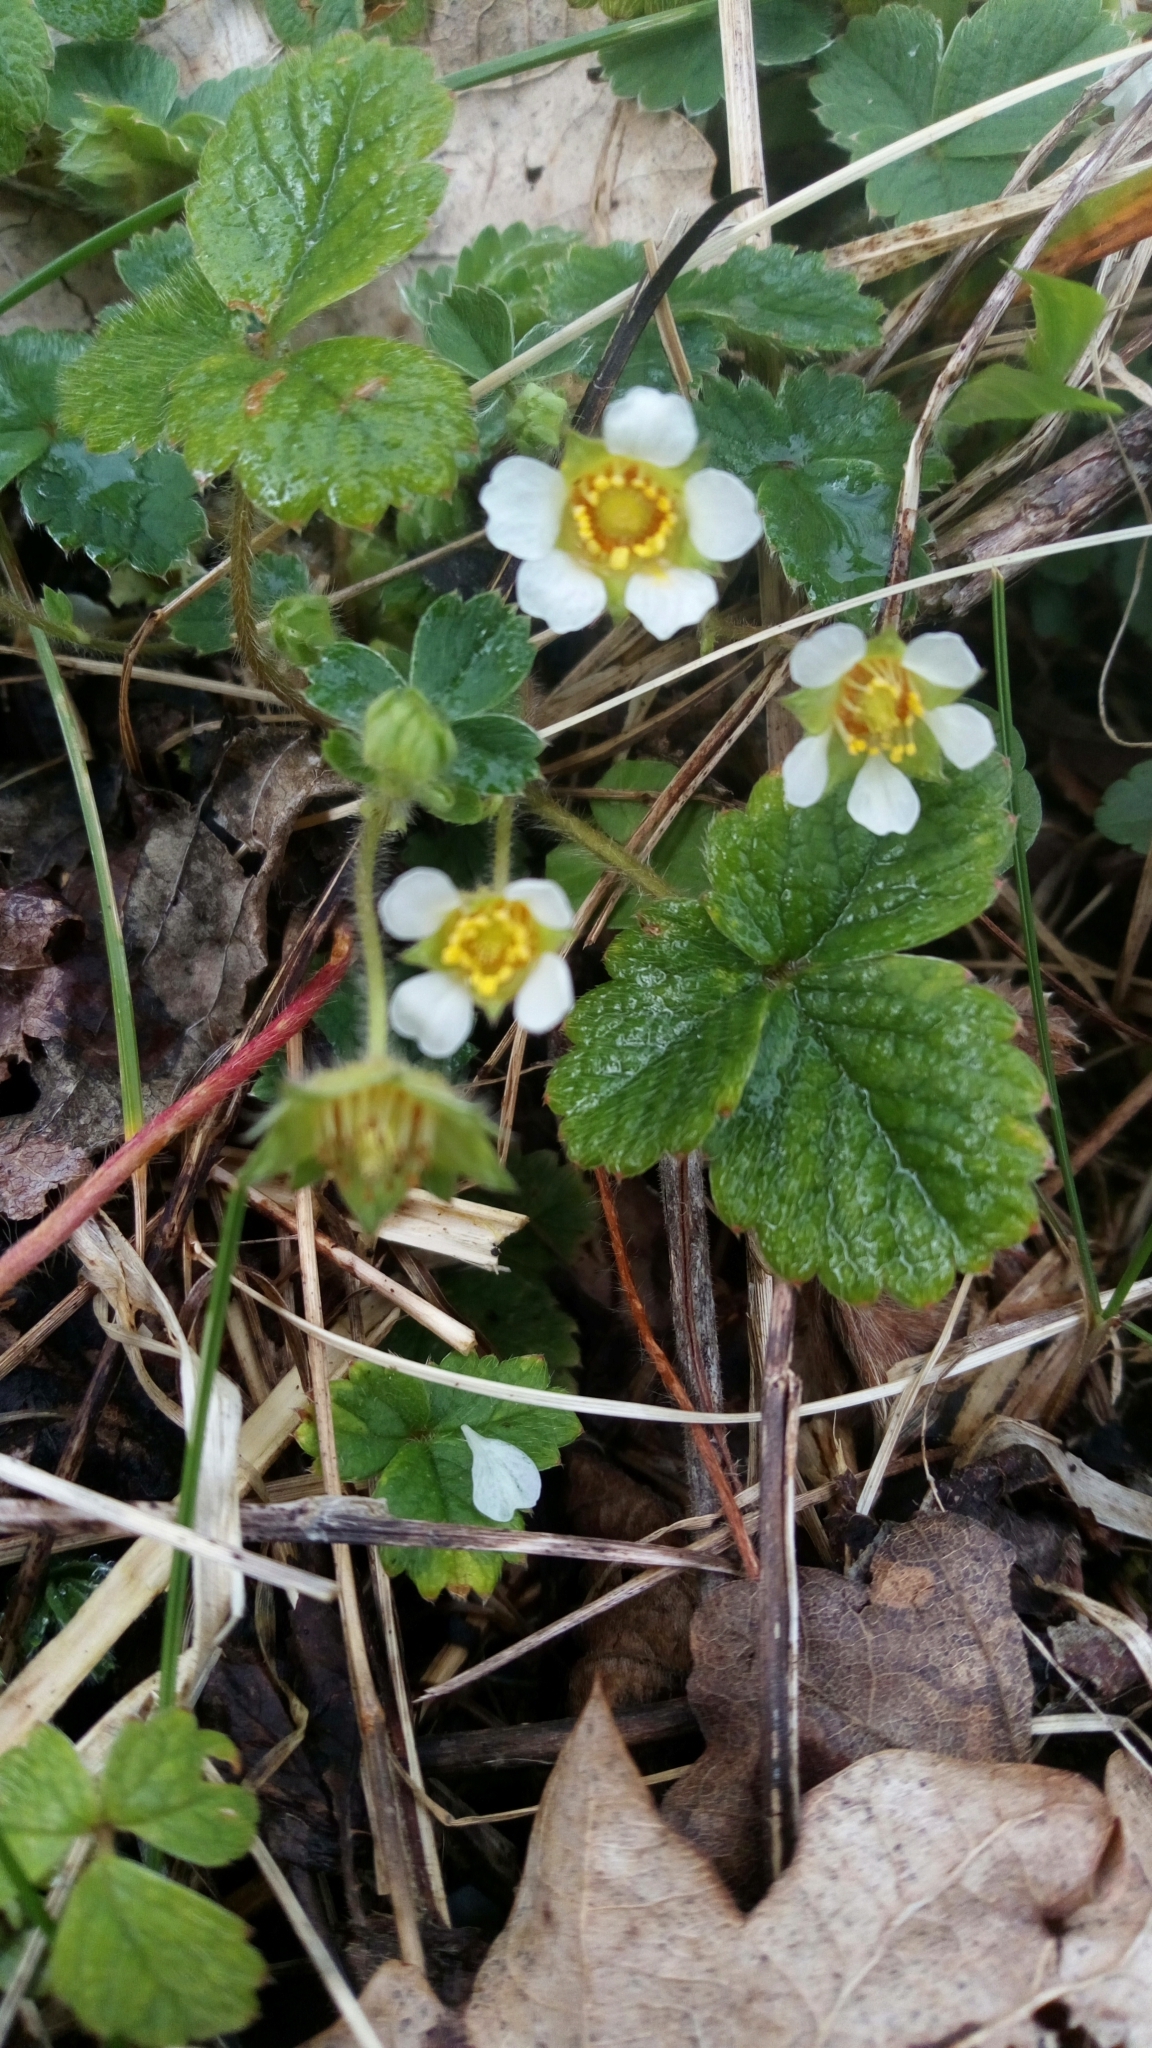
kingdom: Plantae
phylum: Tracheophyta
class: Magnoliopsida
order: Rosales
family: Rosaceae
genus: Potentilla
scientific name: Potentilla sterilis
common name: Barren strawberry
